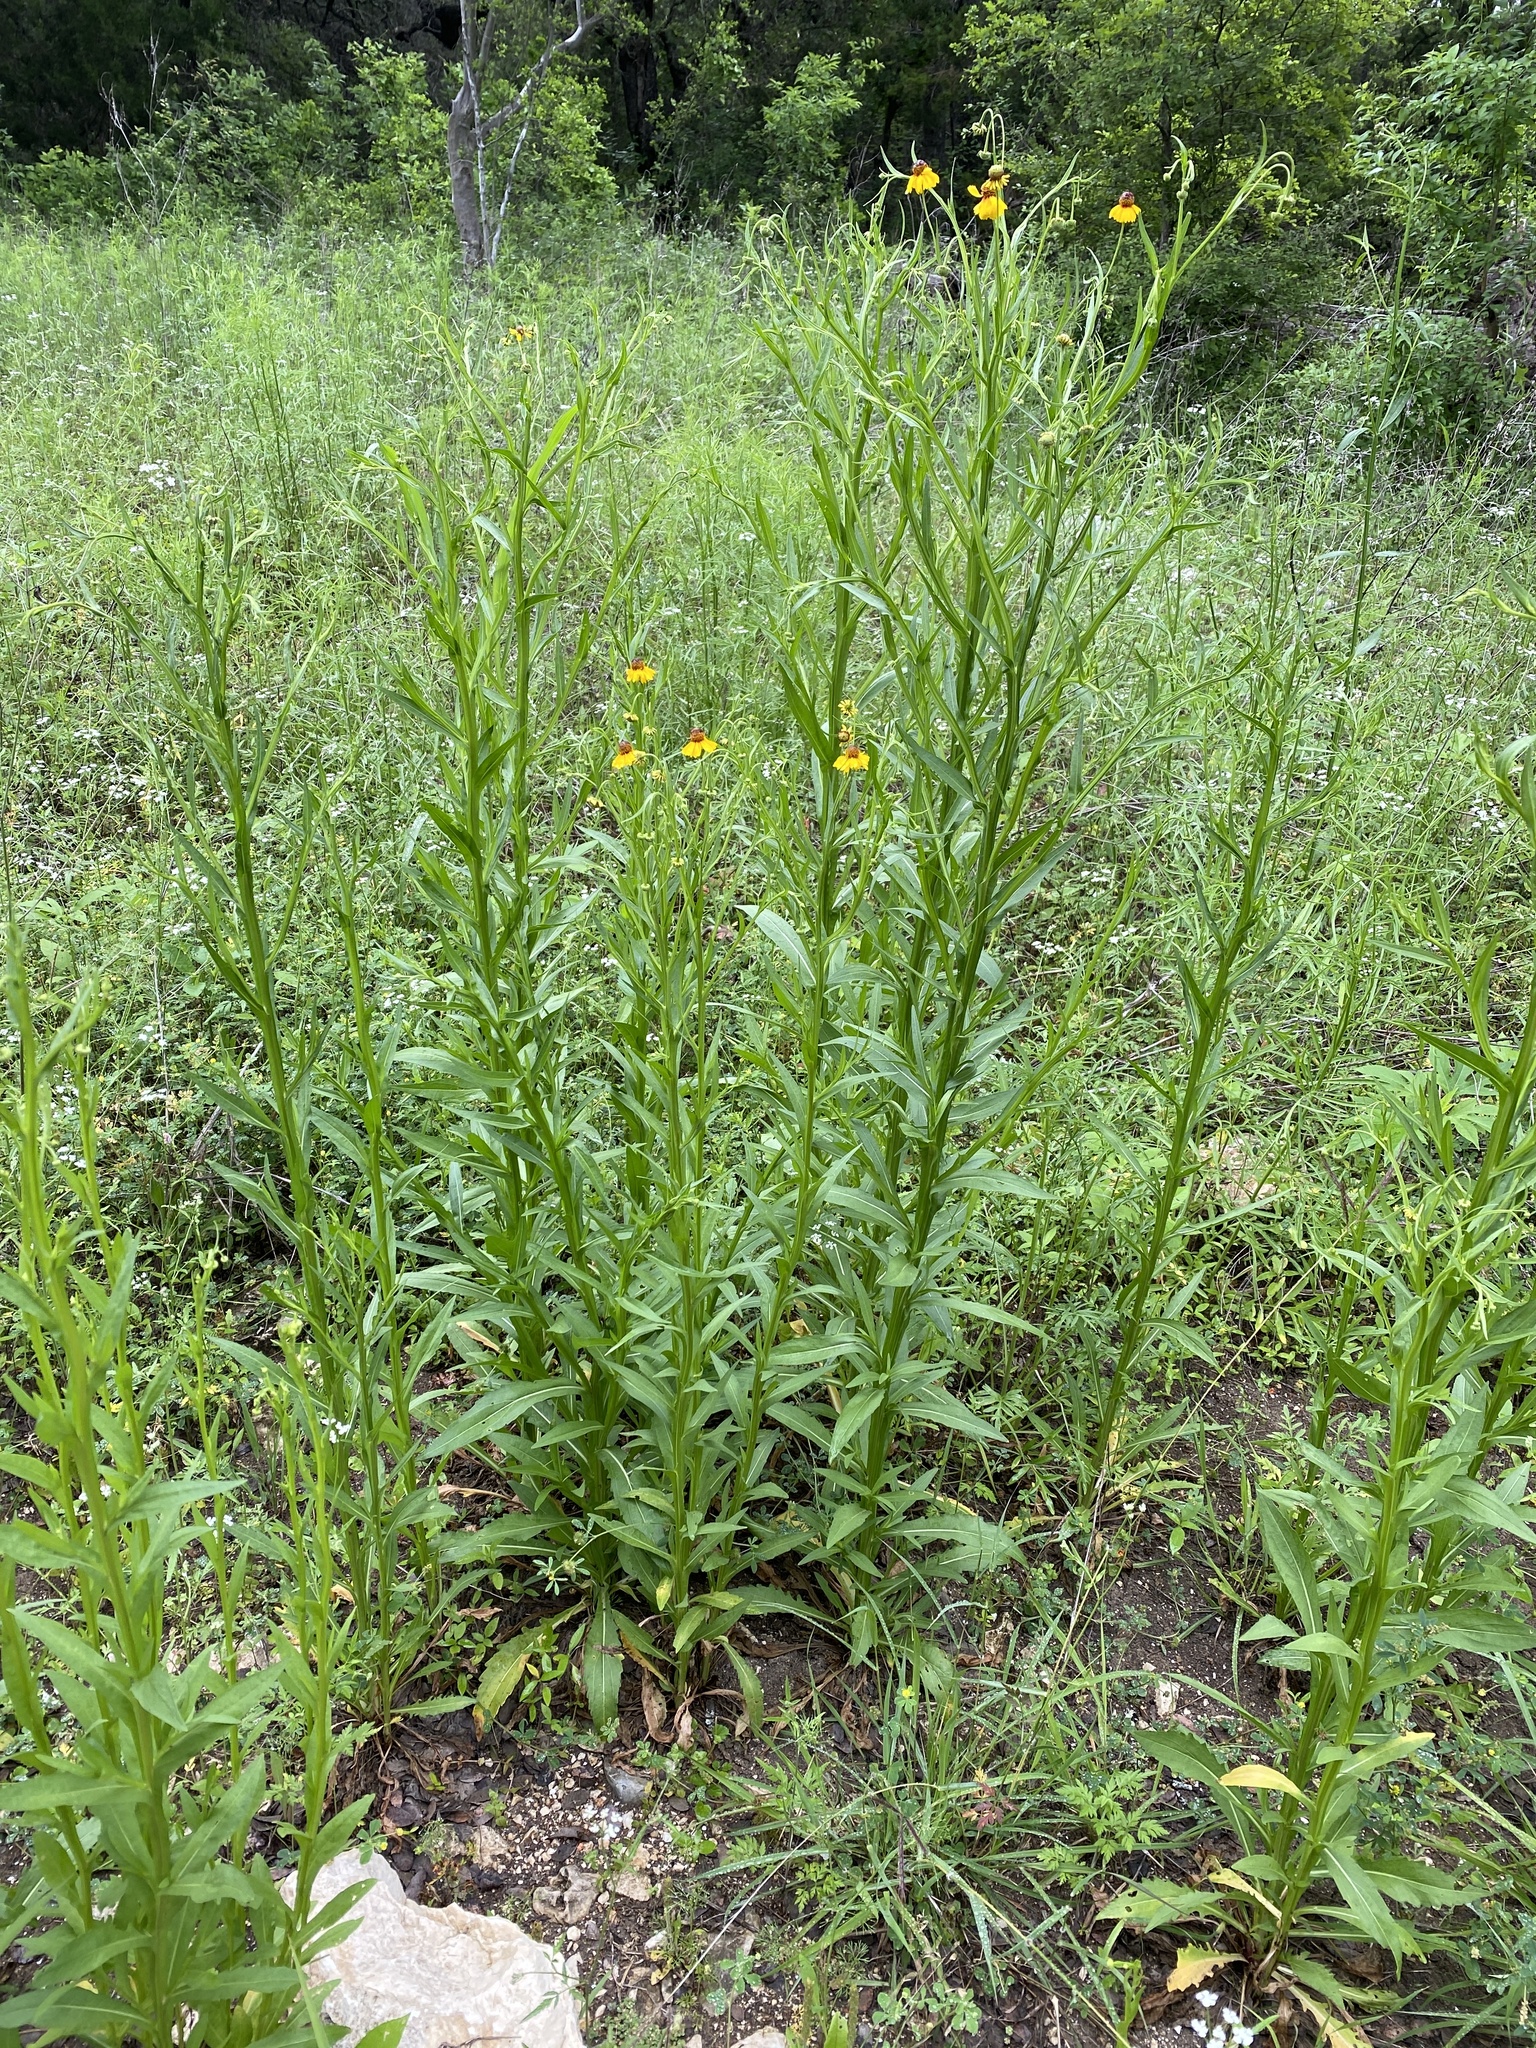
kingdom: Plantae
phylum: Tracheophyta
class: Magnoliopsida
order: Asterales
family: Asteraceae
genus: Helenium
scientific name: Helenium elegans
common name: Pretty sneezeweed
